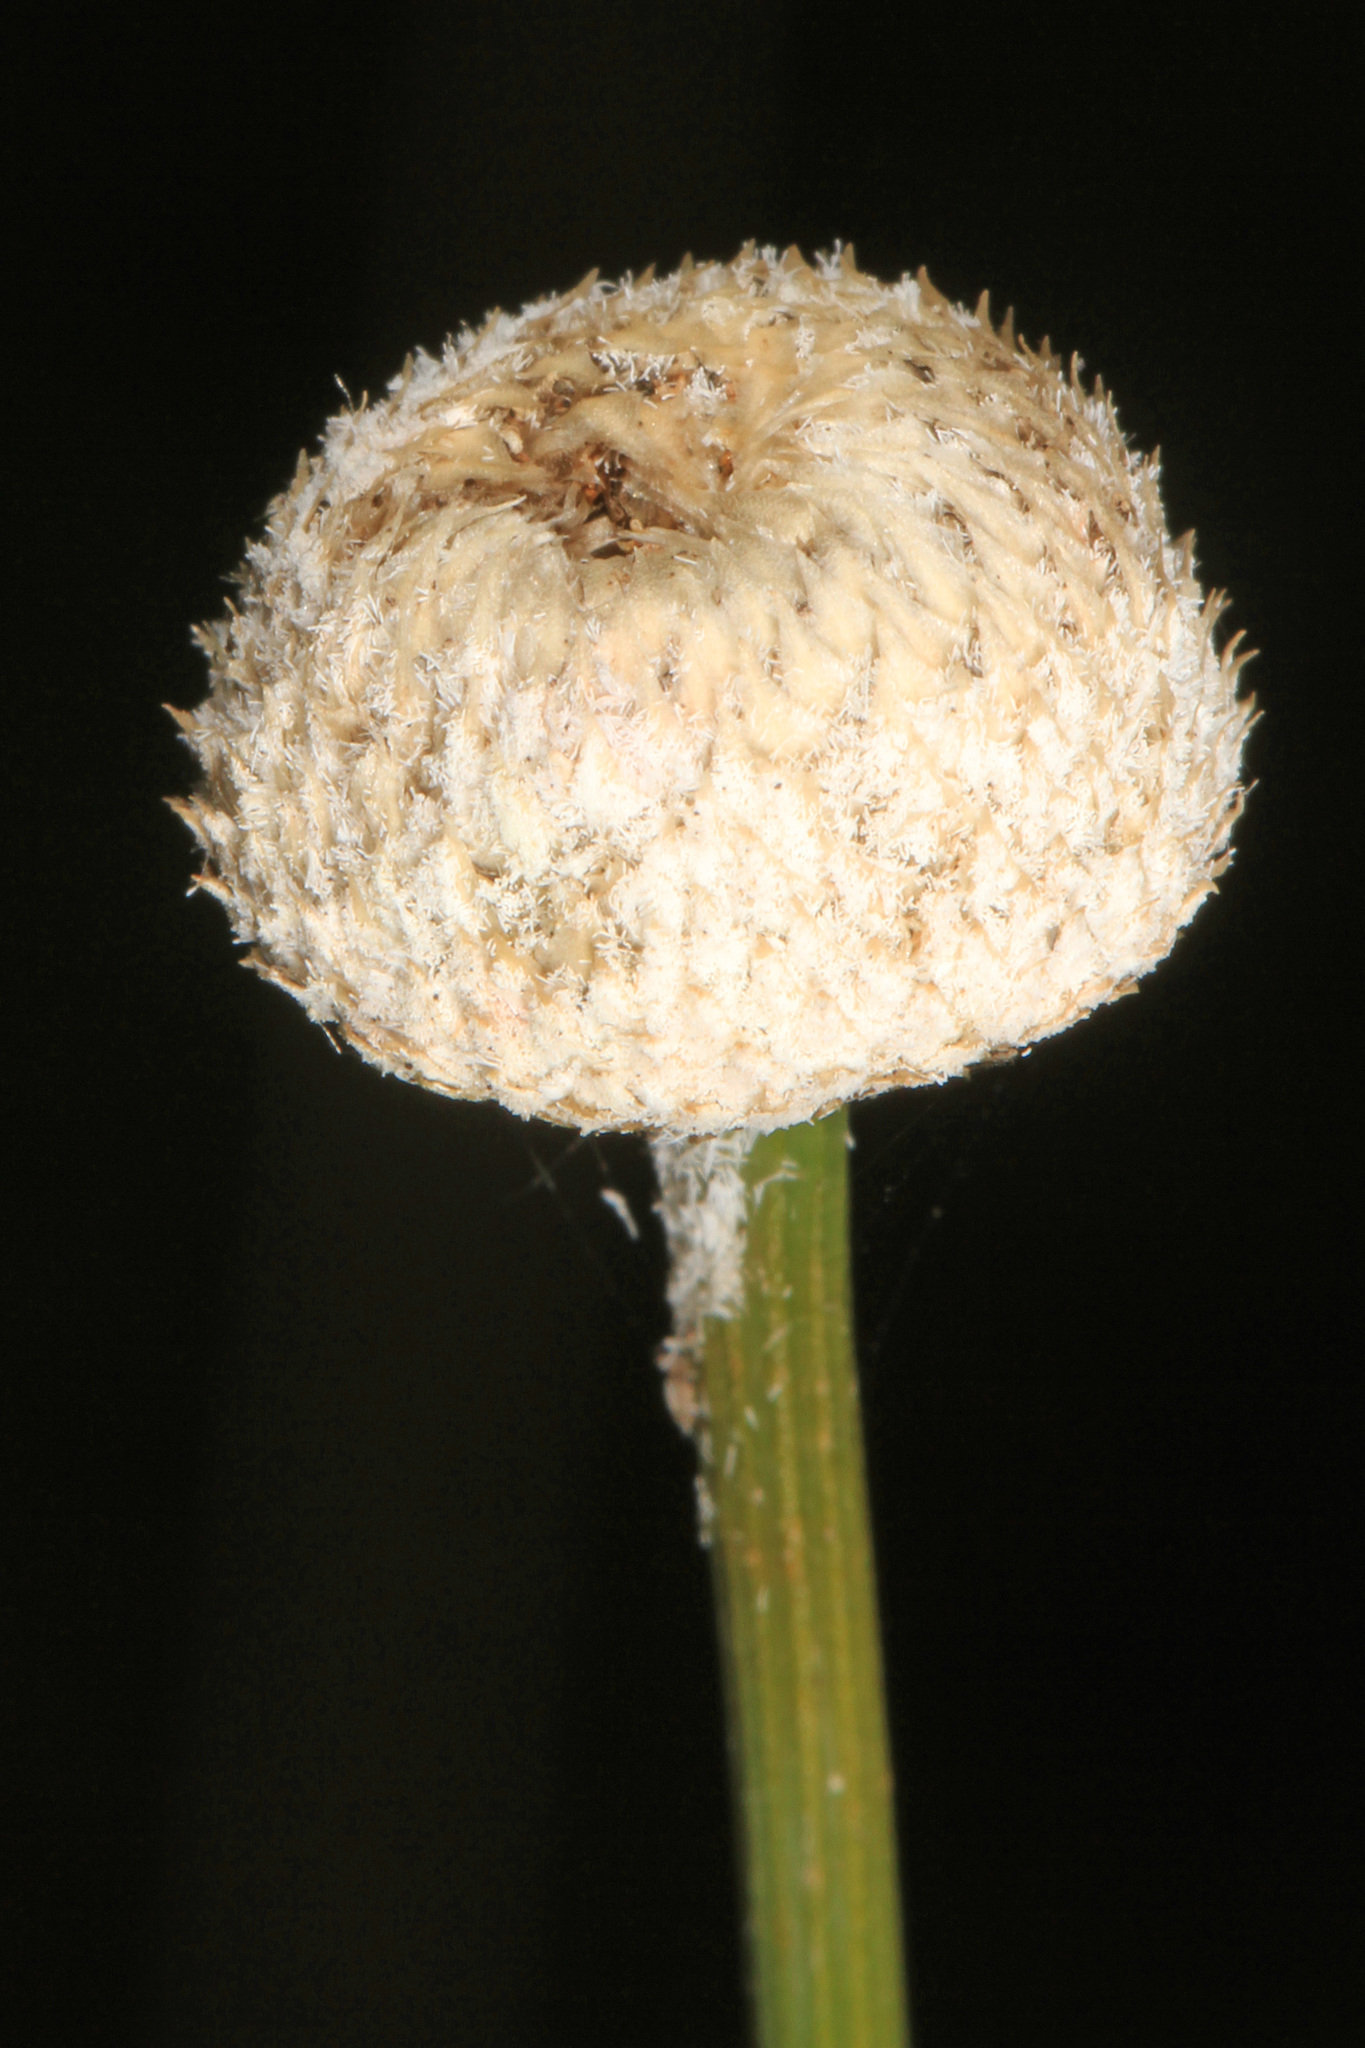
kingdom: Plantae
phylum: Tracheophyta
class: Liliopsida
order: Poales
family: Eriocaulaceae
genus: Eriocaulon
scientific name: Eriocaulon decangulare
